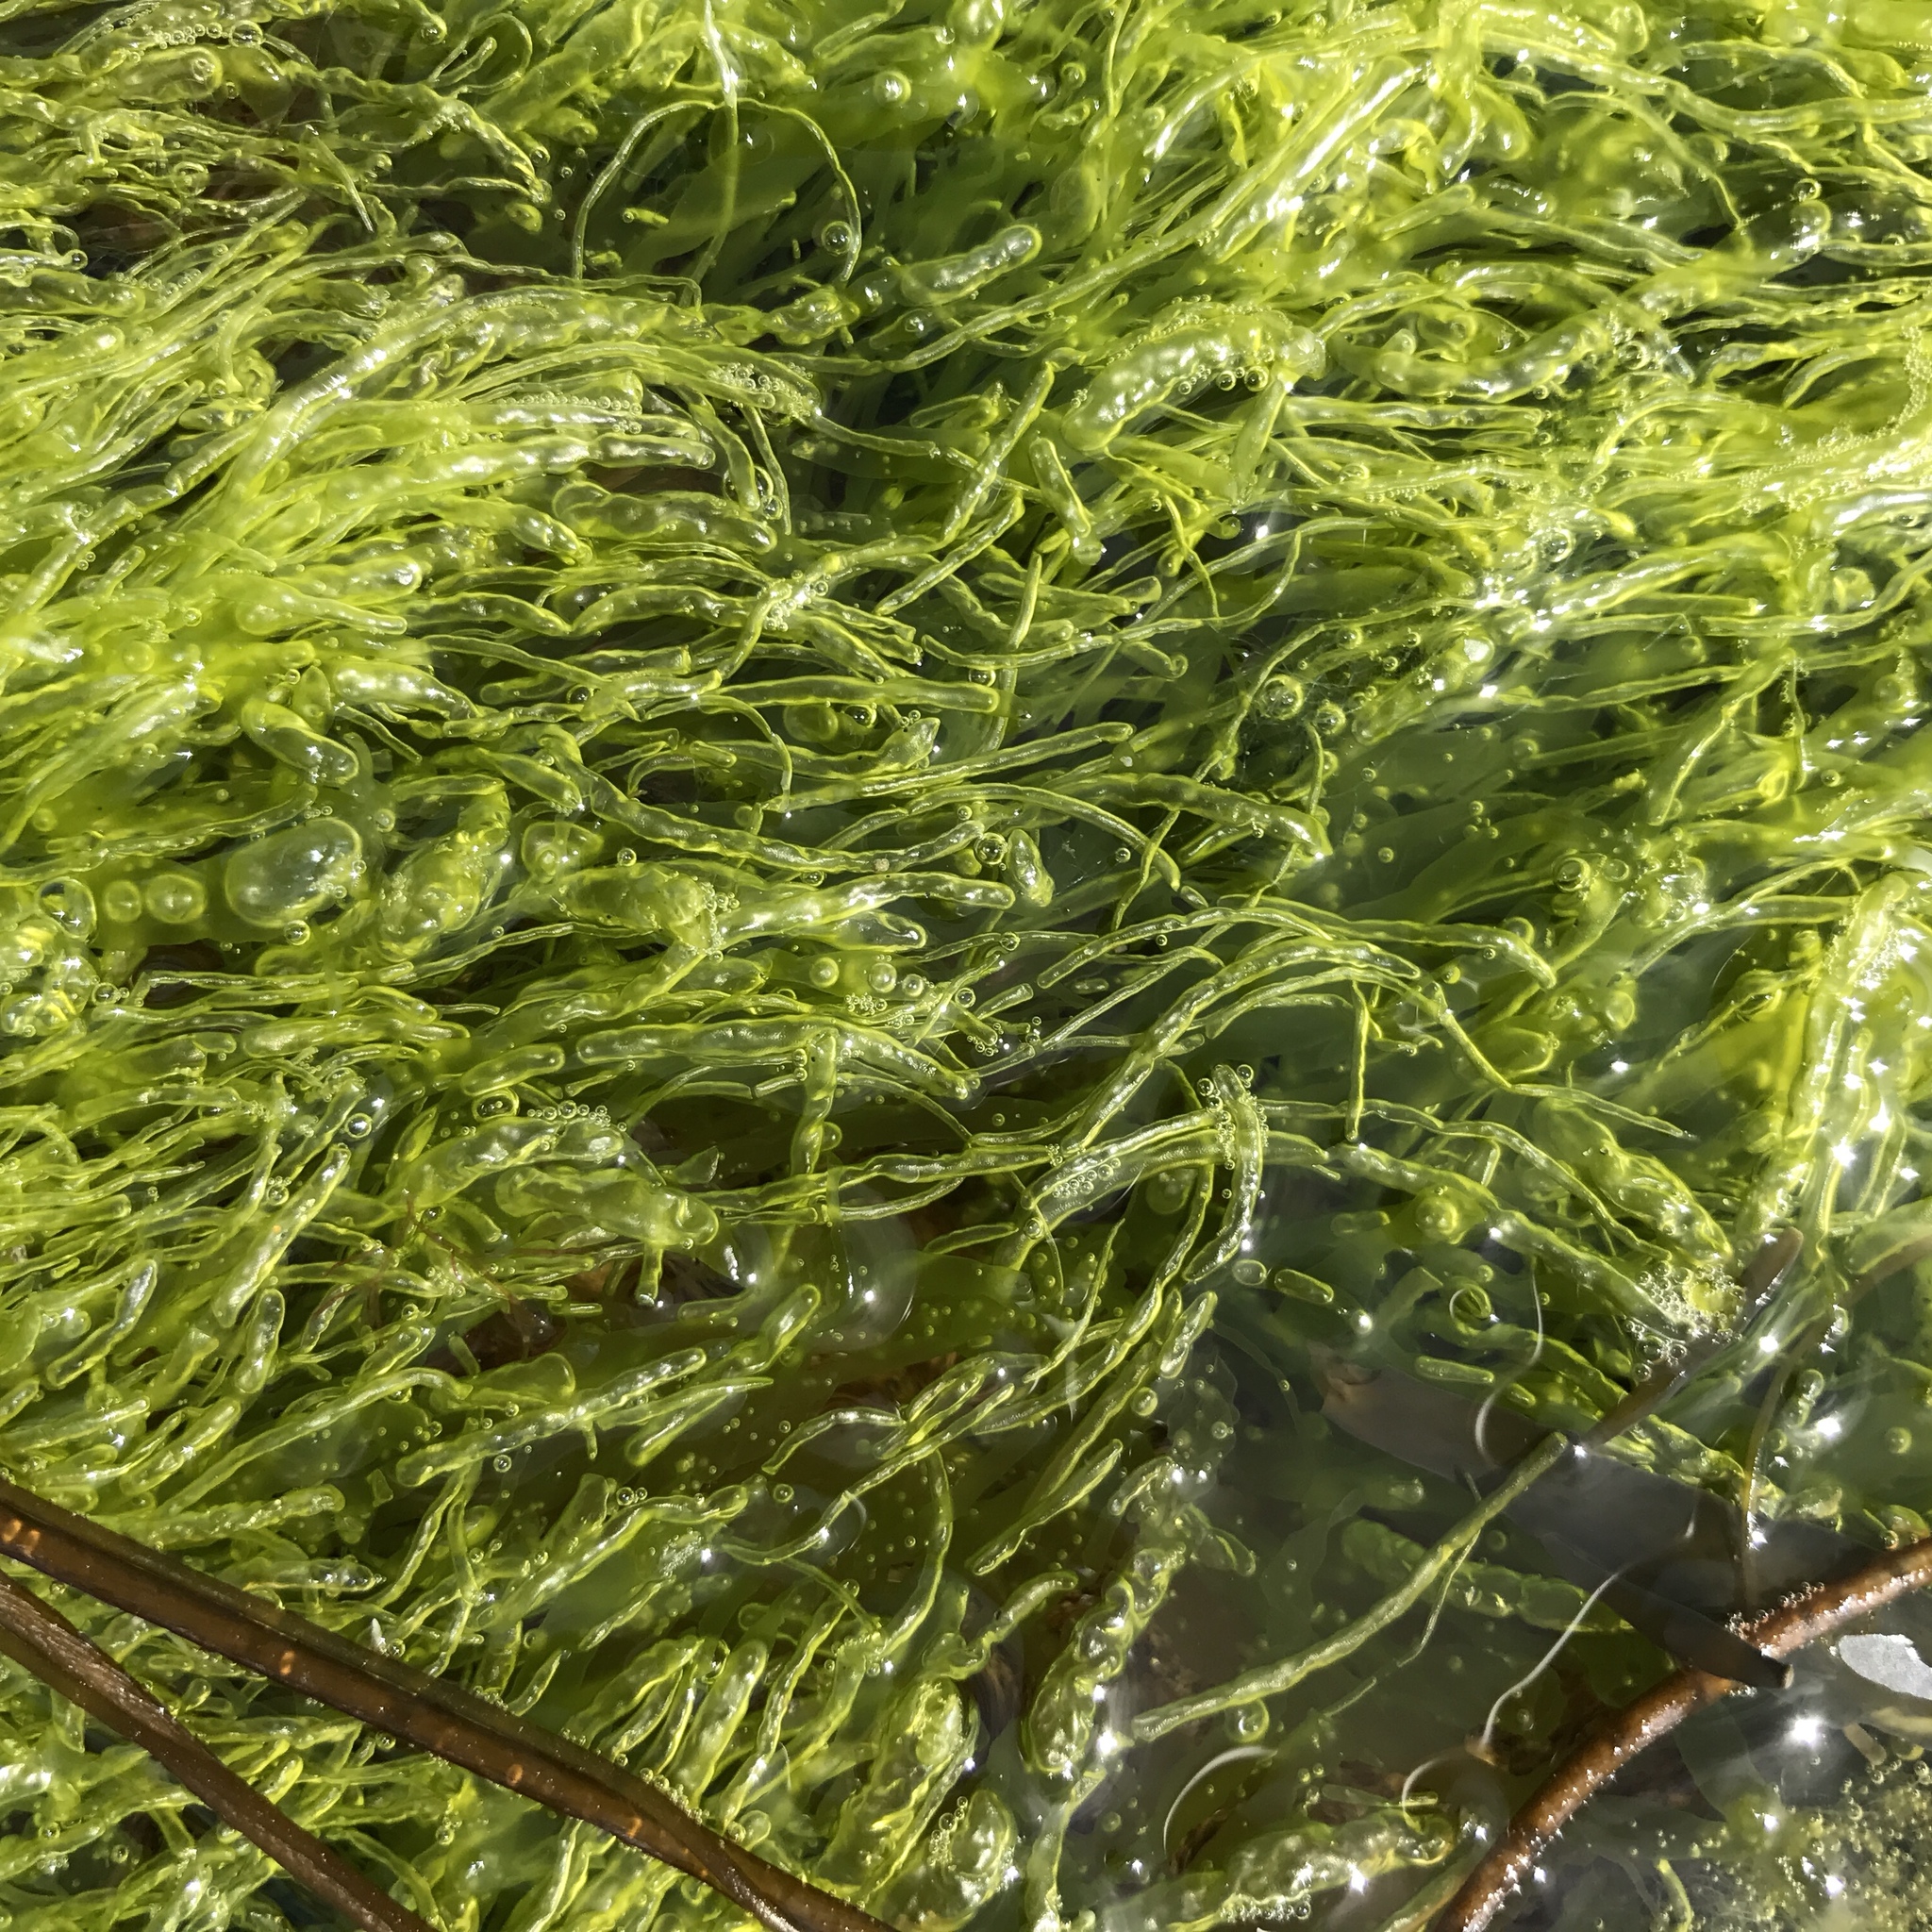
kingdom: Plantae
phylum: Chlorophyta
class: Ulvophyceae
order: Ulvales
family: Ulvaceae
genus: Ulva
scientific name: Ulva intestinalis
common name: Gut weed
